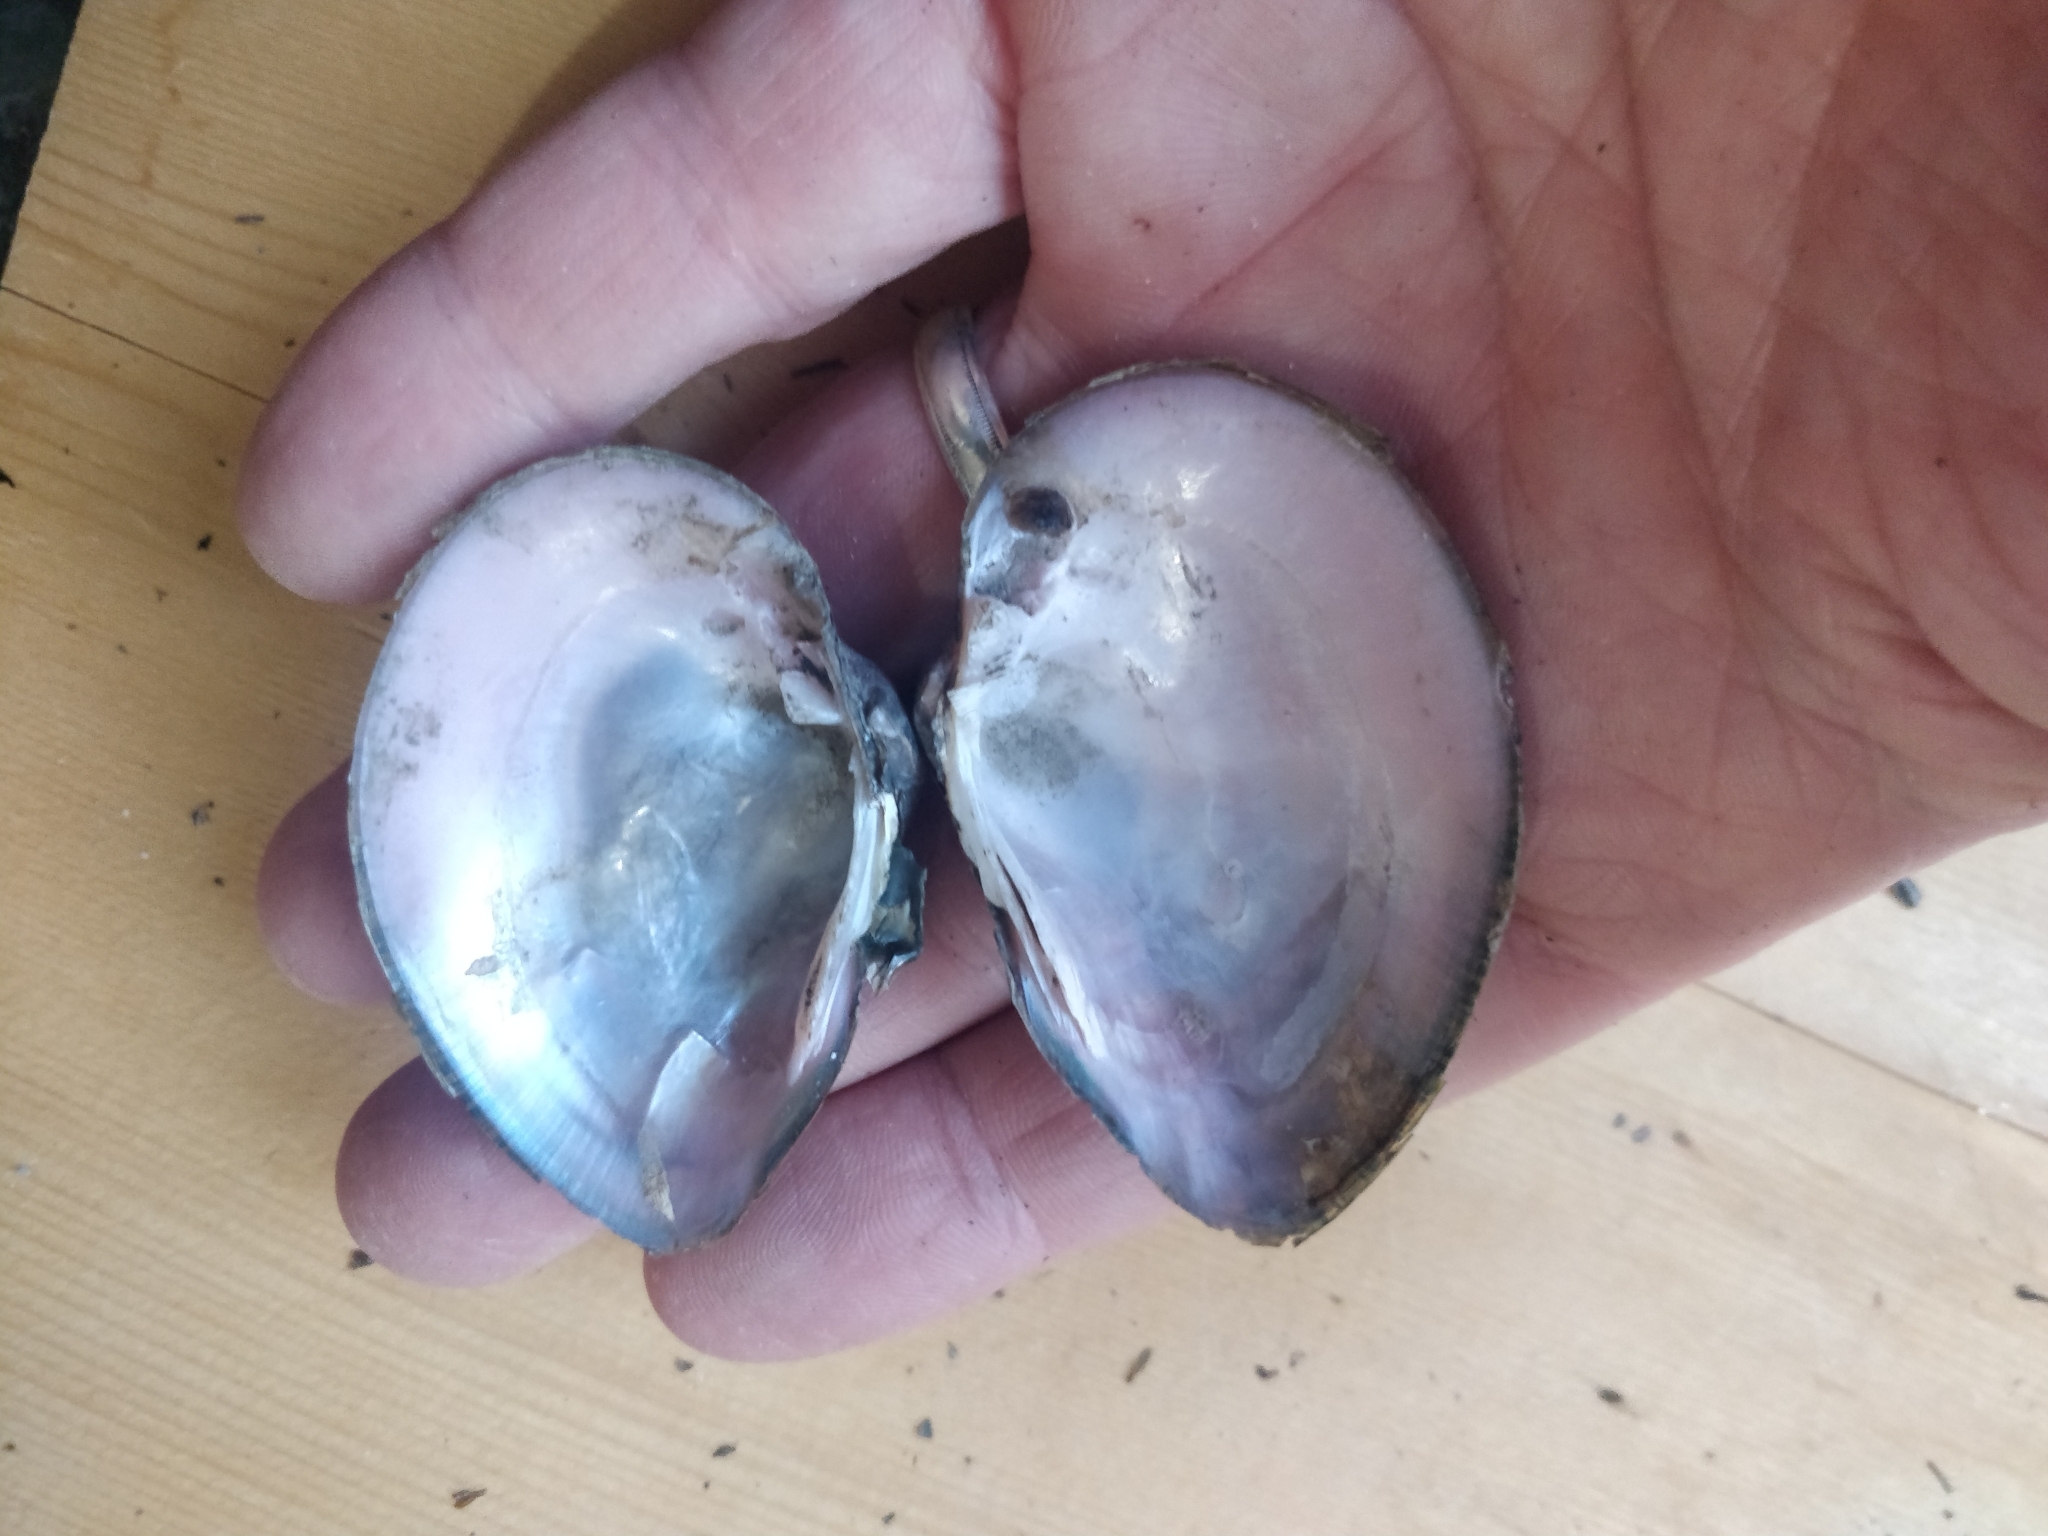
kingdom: Animalia
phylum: Mollusca
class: Bivalvia
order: Unionida
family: Unionidae
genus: Truncilla
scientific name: Truncilla truncata
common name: Deertoe
